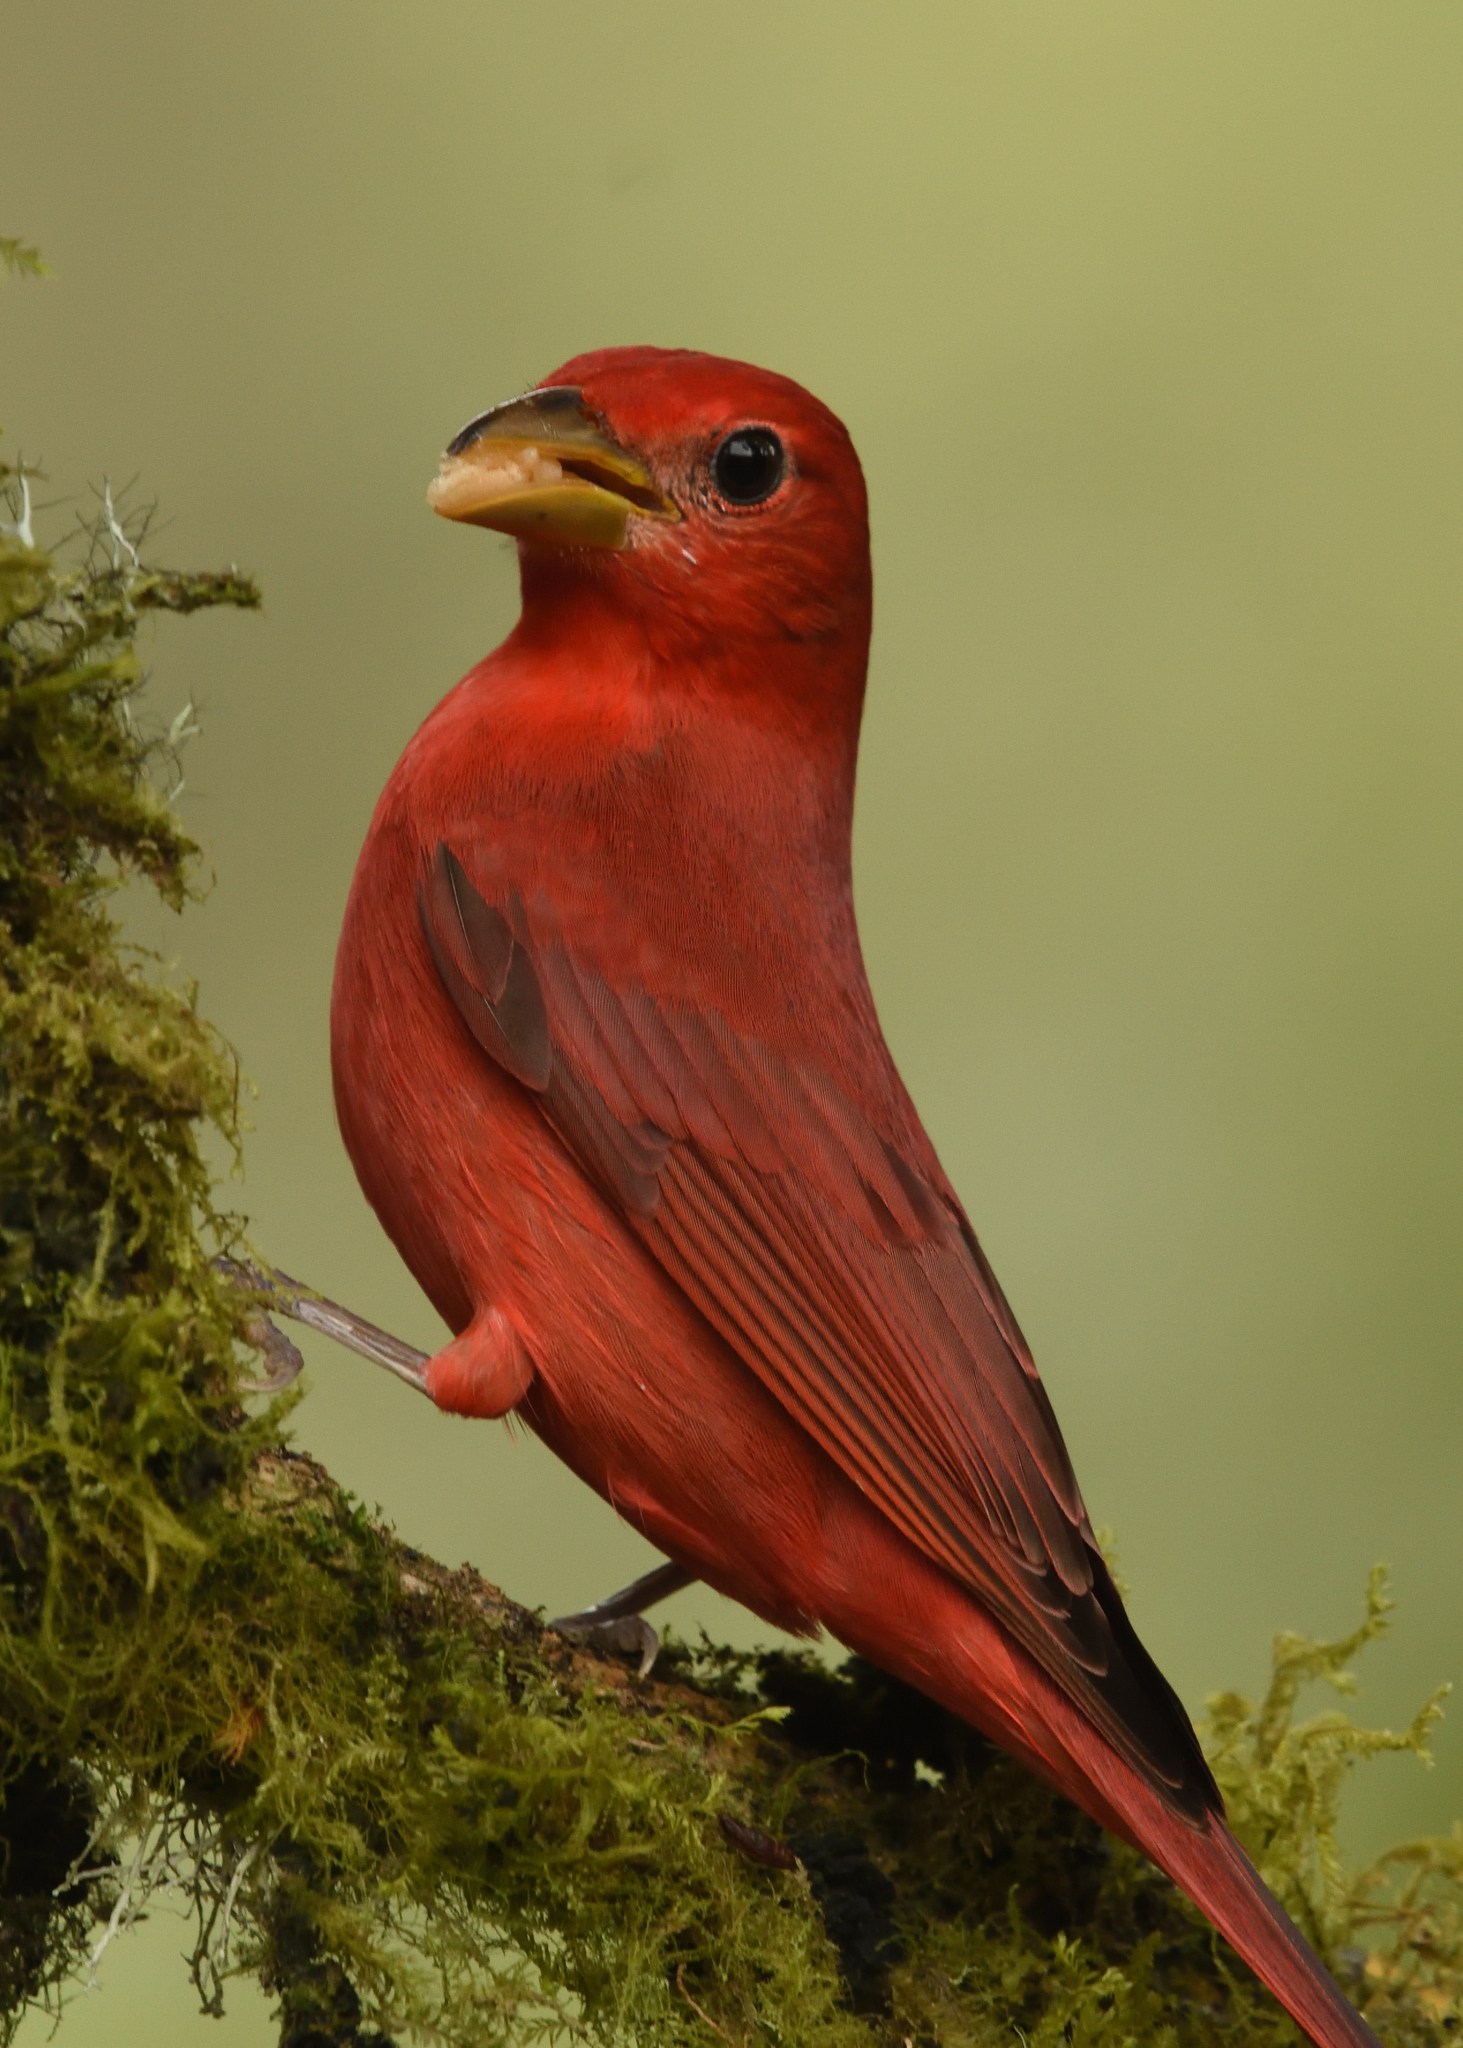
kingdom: Animalia
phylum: Chordata
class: Aves
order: Passeriformes
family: Cardinalidae
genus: Piranga
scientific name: Piranga rubra
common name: Summer tanager
